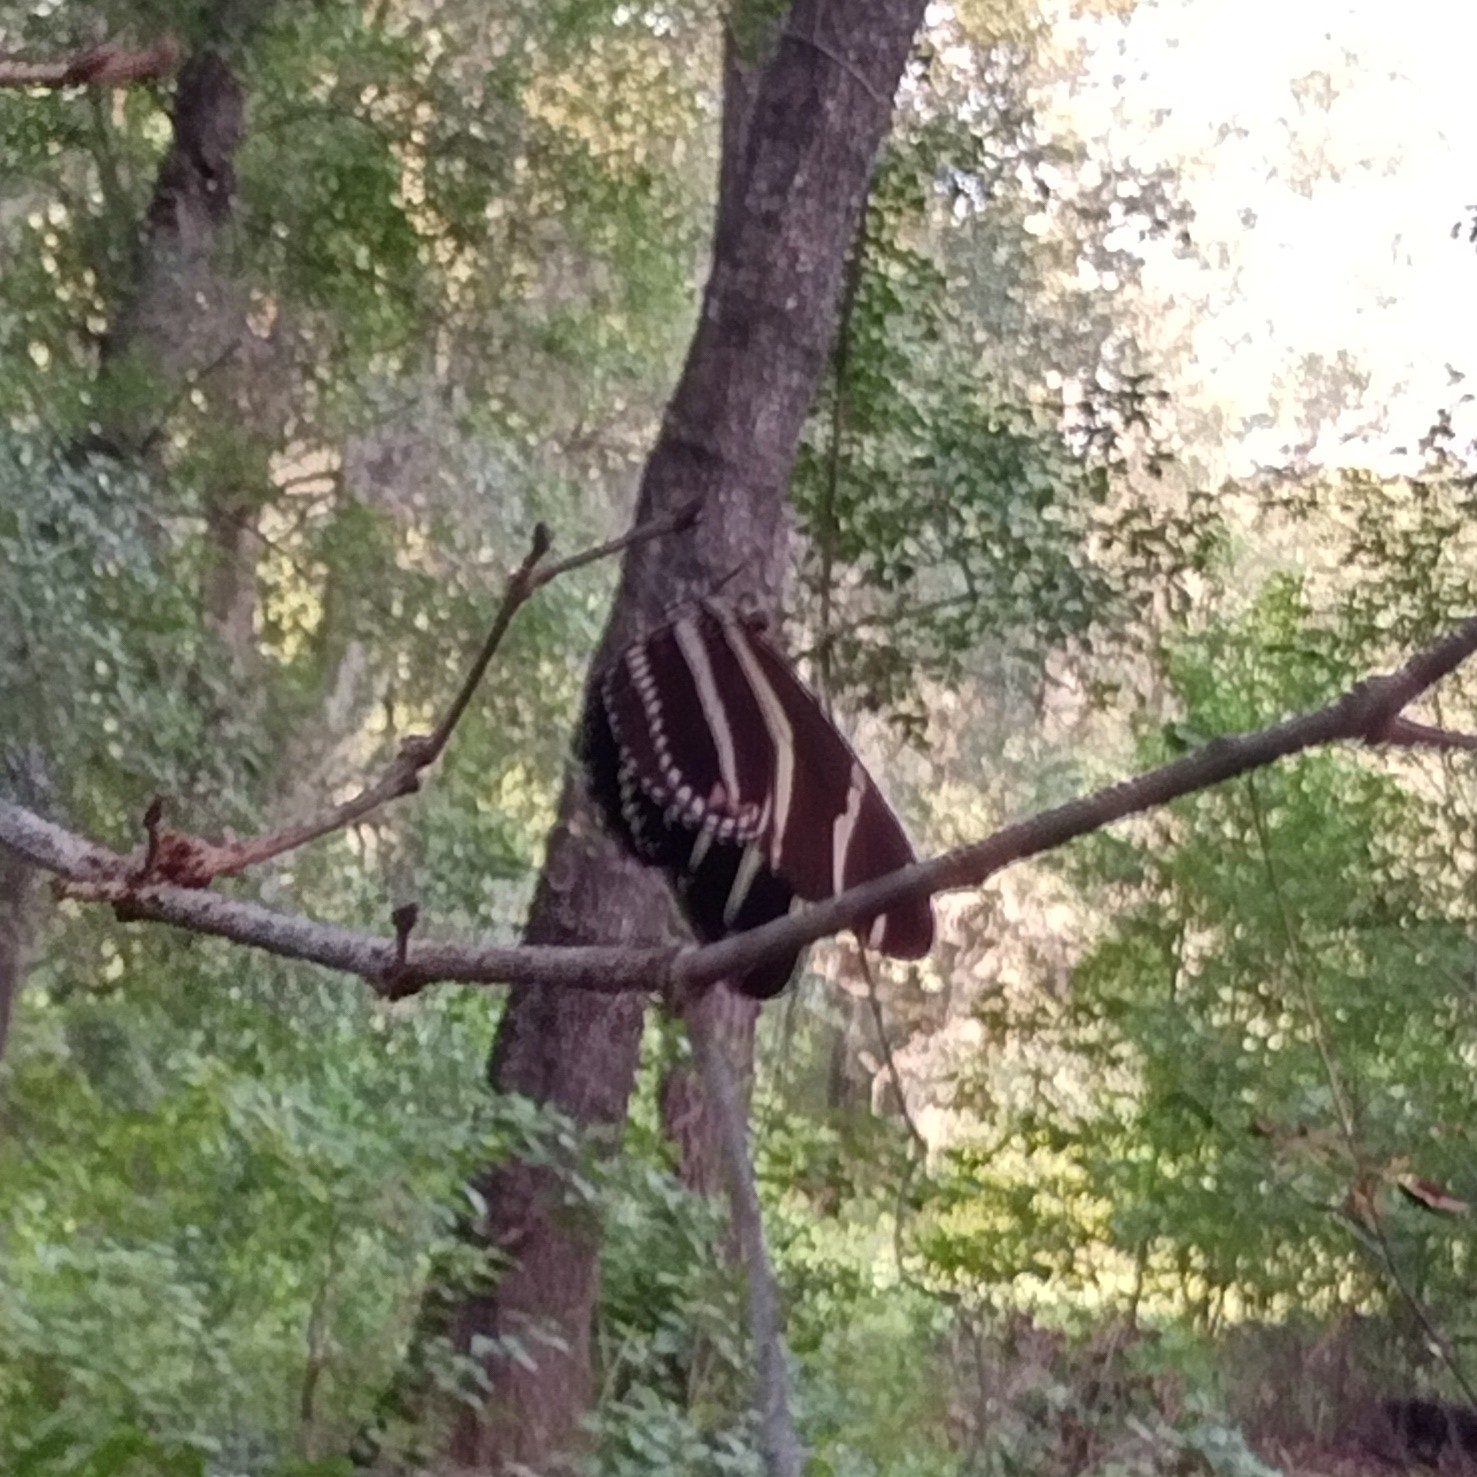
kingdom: Animalia
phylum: Arthropoda
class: Insecta
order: Lepidoptera
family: Nymphalidae
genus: Heliconius
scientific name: Heliconius charithonia
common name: Zebra long wing
